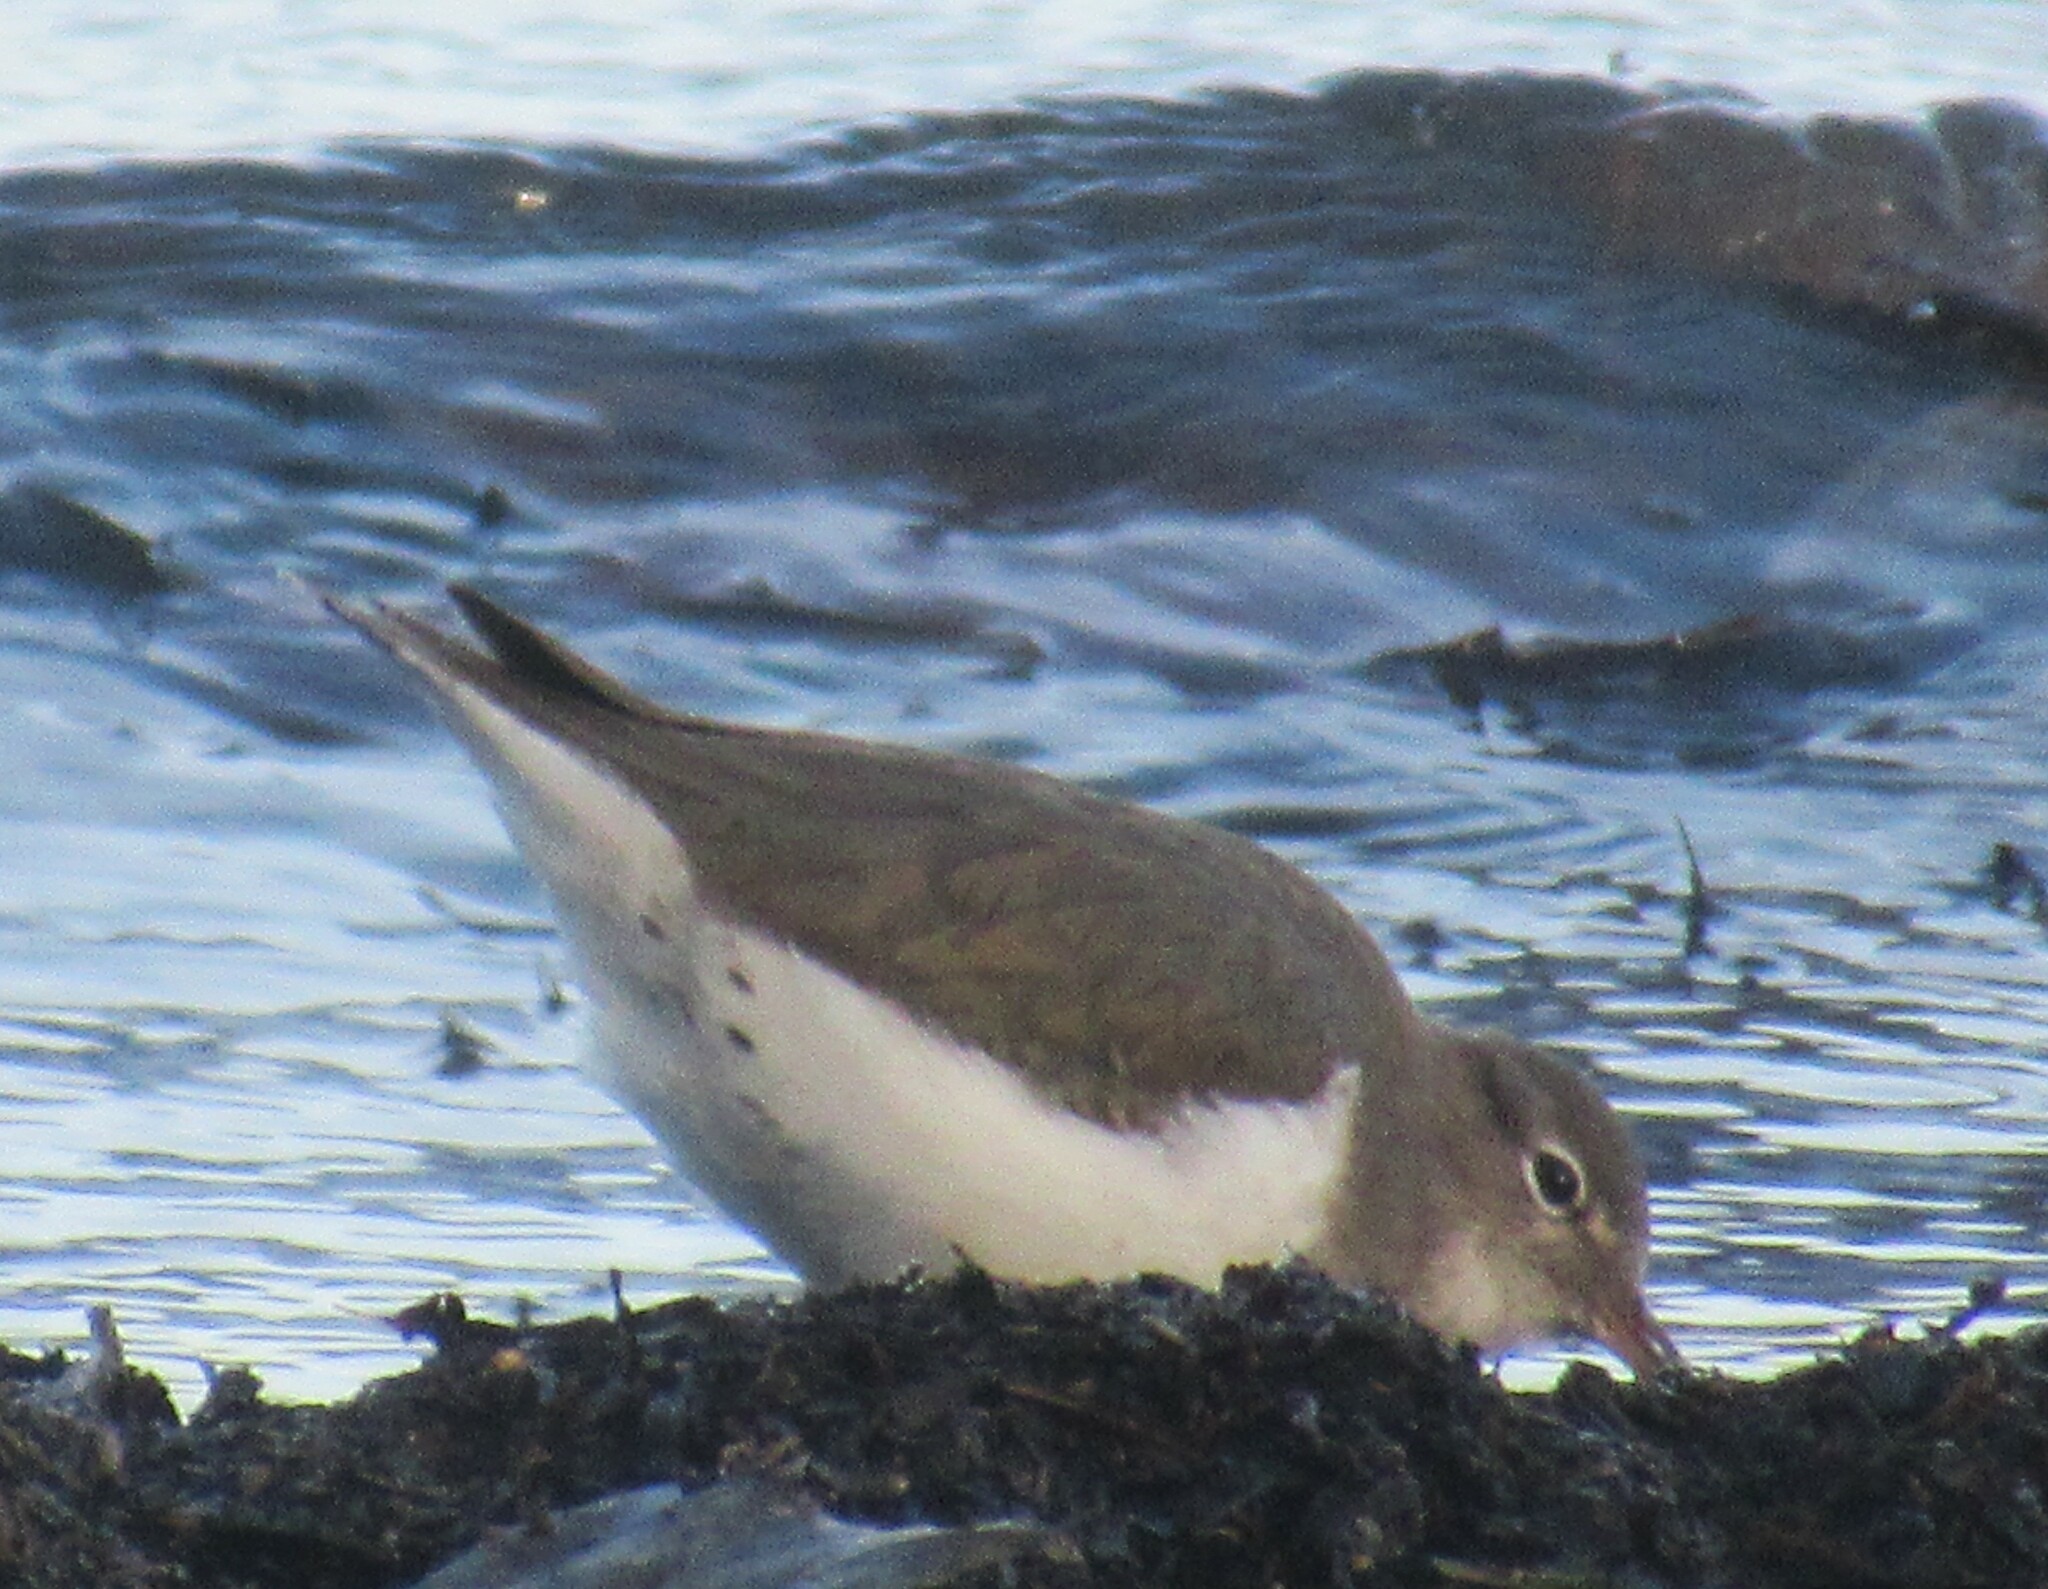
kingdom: Animalia
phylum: Chordata
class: Aves
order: Charadriiformes
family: Scolopacidae
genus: Actitis
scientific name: Actitis macularius
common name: Spotted sandpiper
